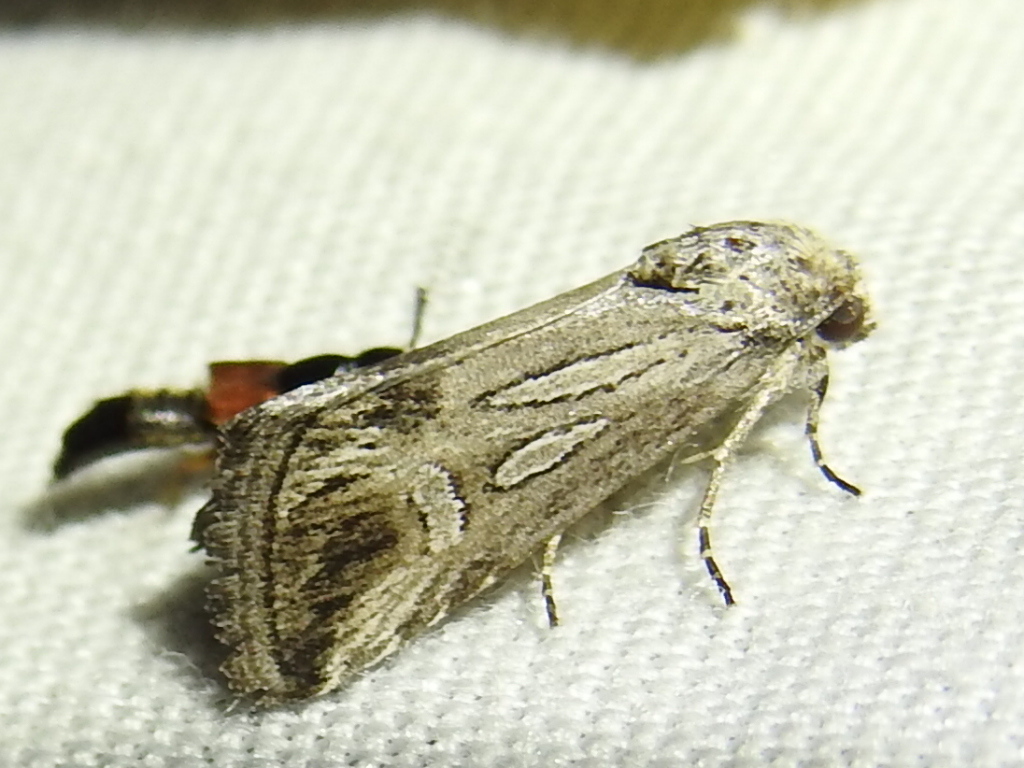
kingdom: Animalia
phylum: Arthropoda
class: Insecta
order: Lepidoptera
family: Noctuidae
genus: Sympistis
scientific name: Sympistis amun
